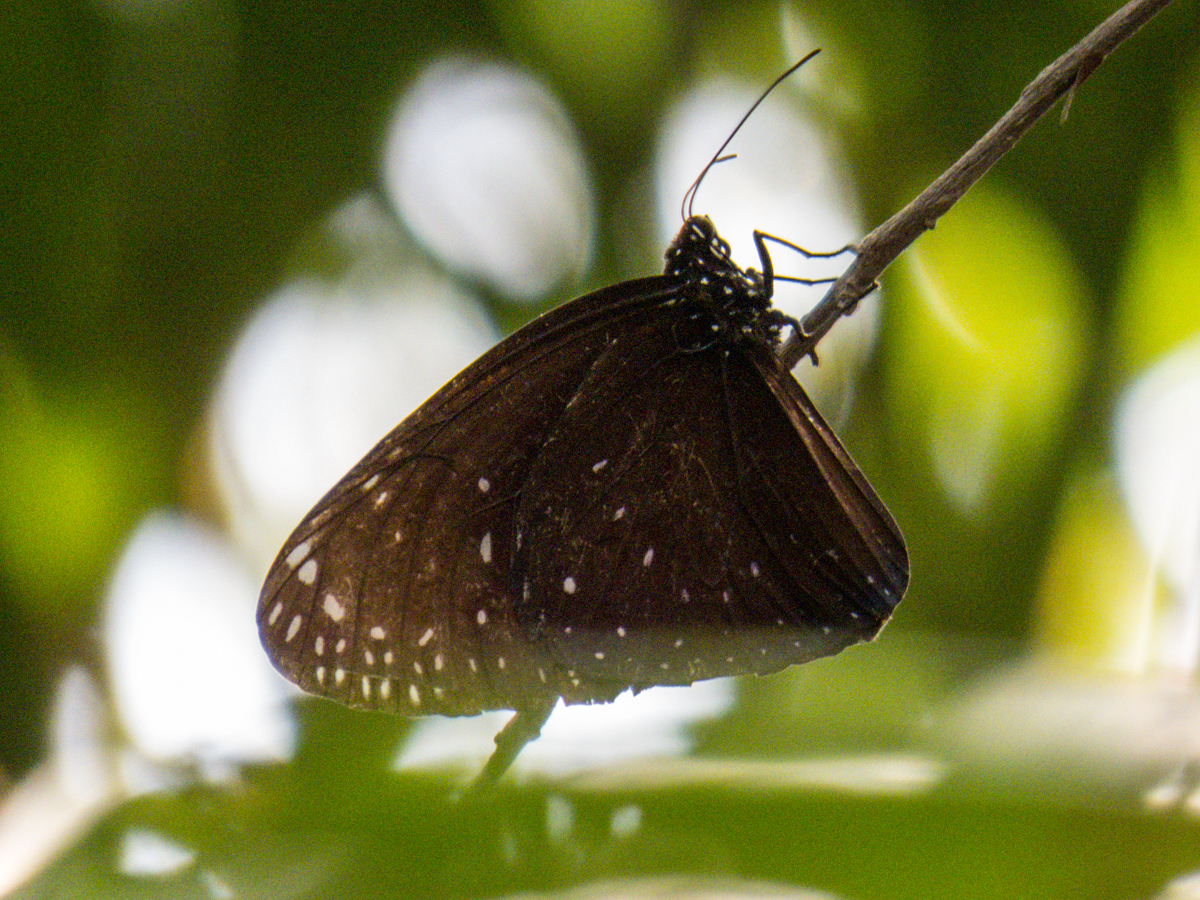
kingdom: Animalia
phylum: Arthropoda
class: Insecta
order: Lepidoptera
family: Nymphalidae
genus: Euploea
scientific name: Euploea phaenareta
